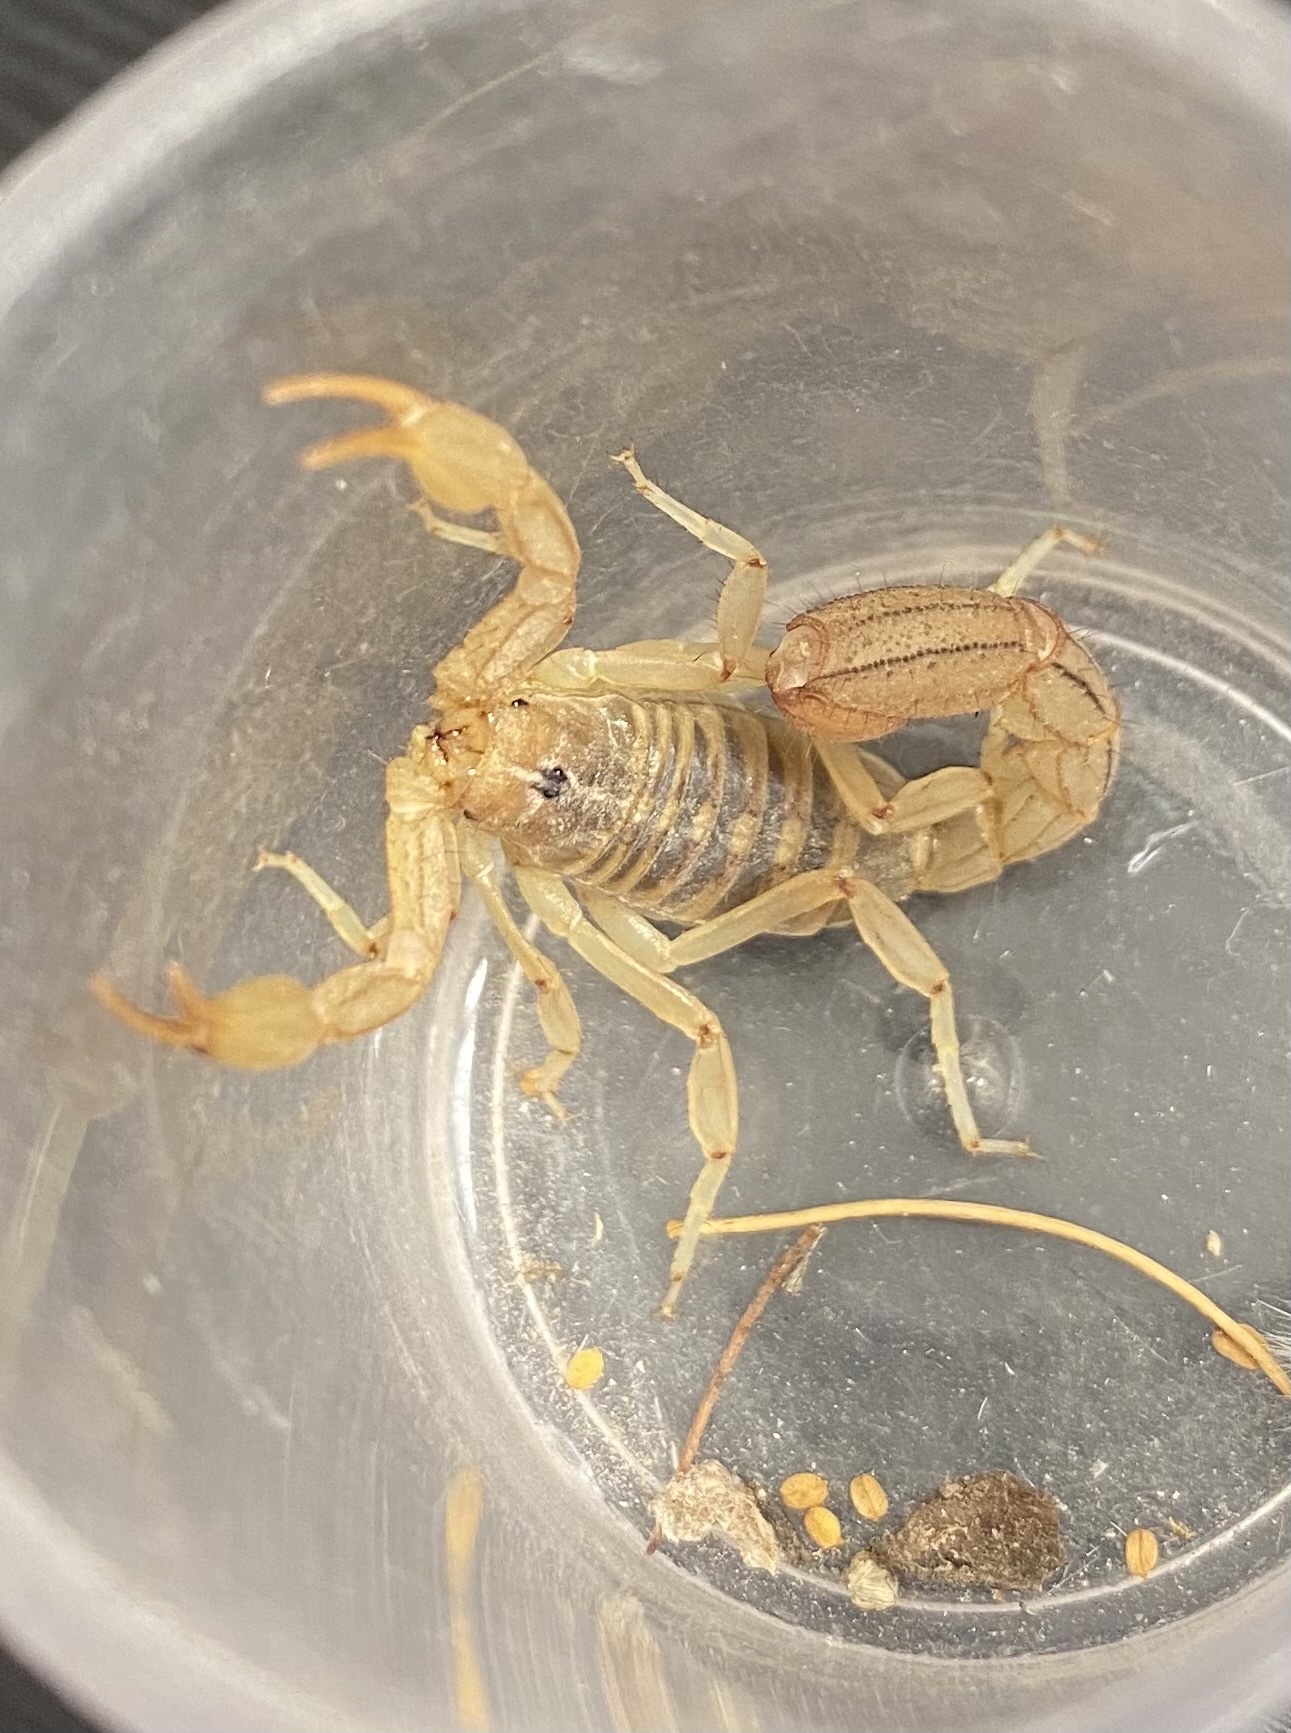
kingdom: Animalia
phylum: Arthropoda
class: Arachnida
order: Scorpiones
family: Vaejovidae
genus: Paravaejovis
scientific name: Paravaejovis spinigerus
